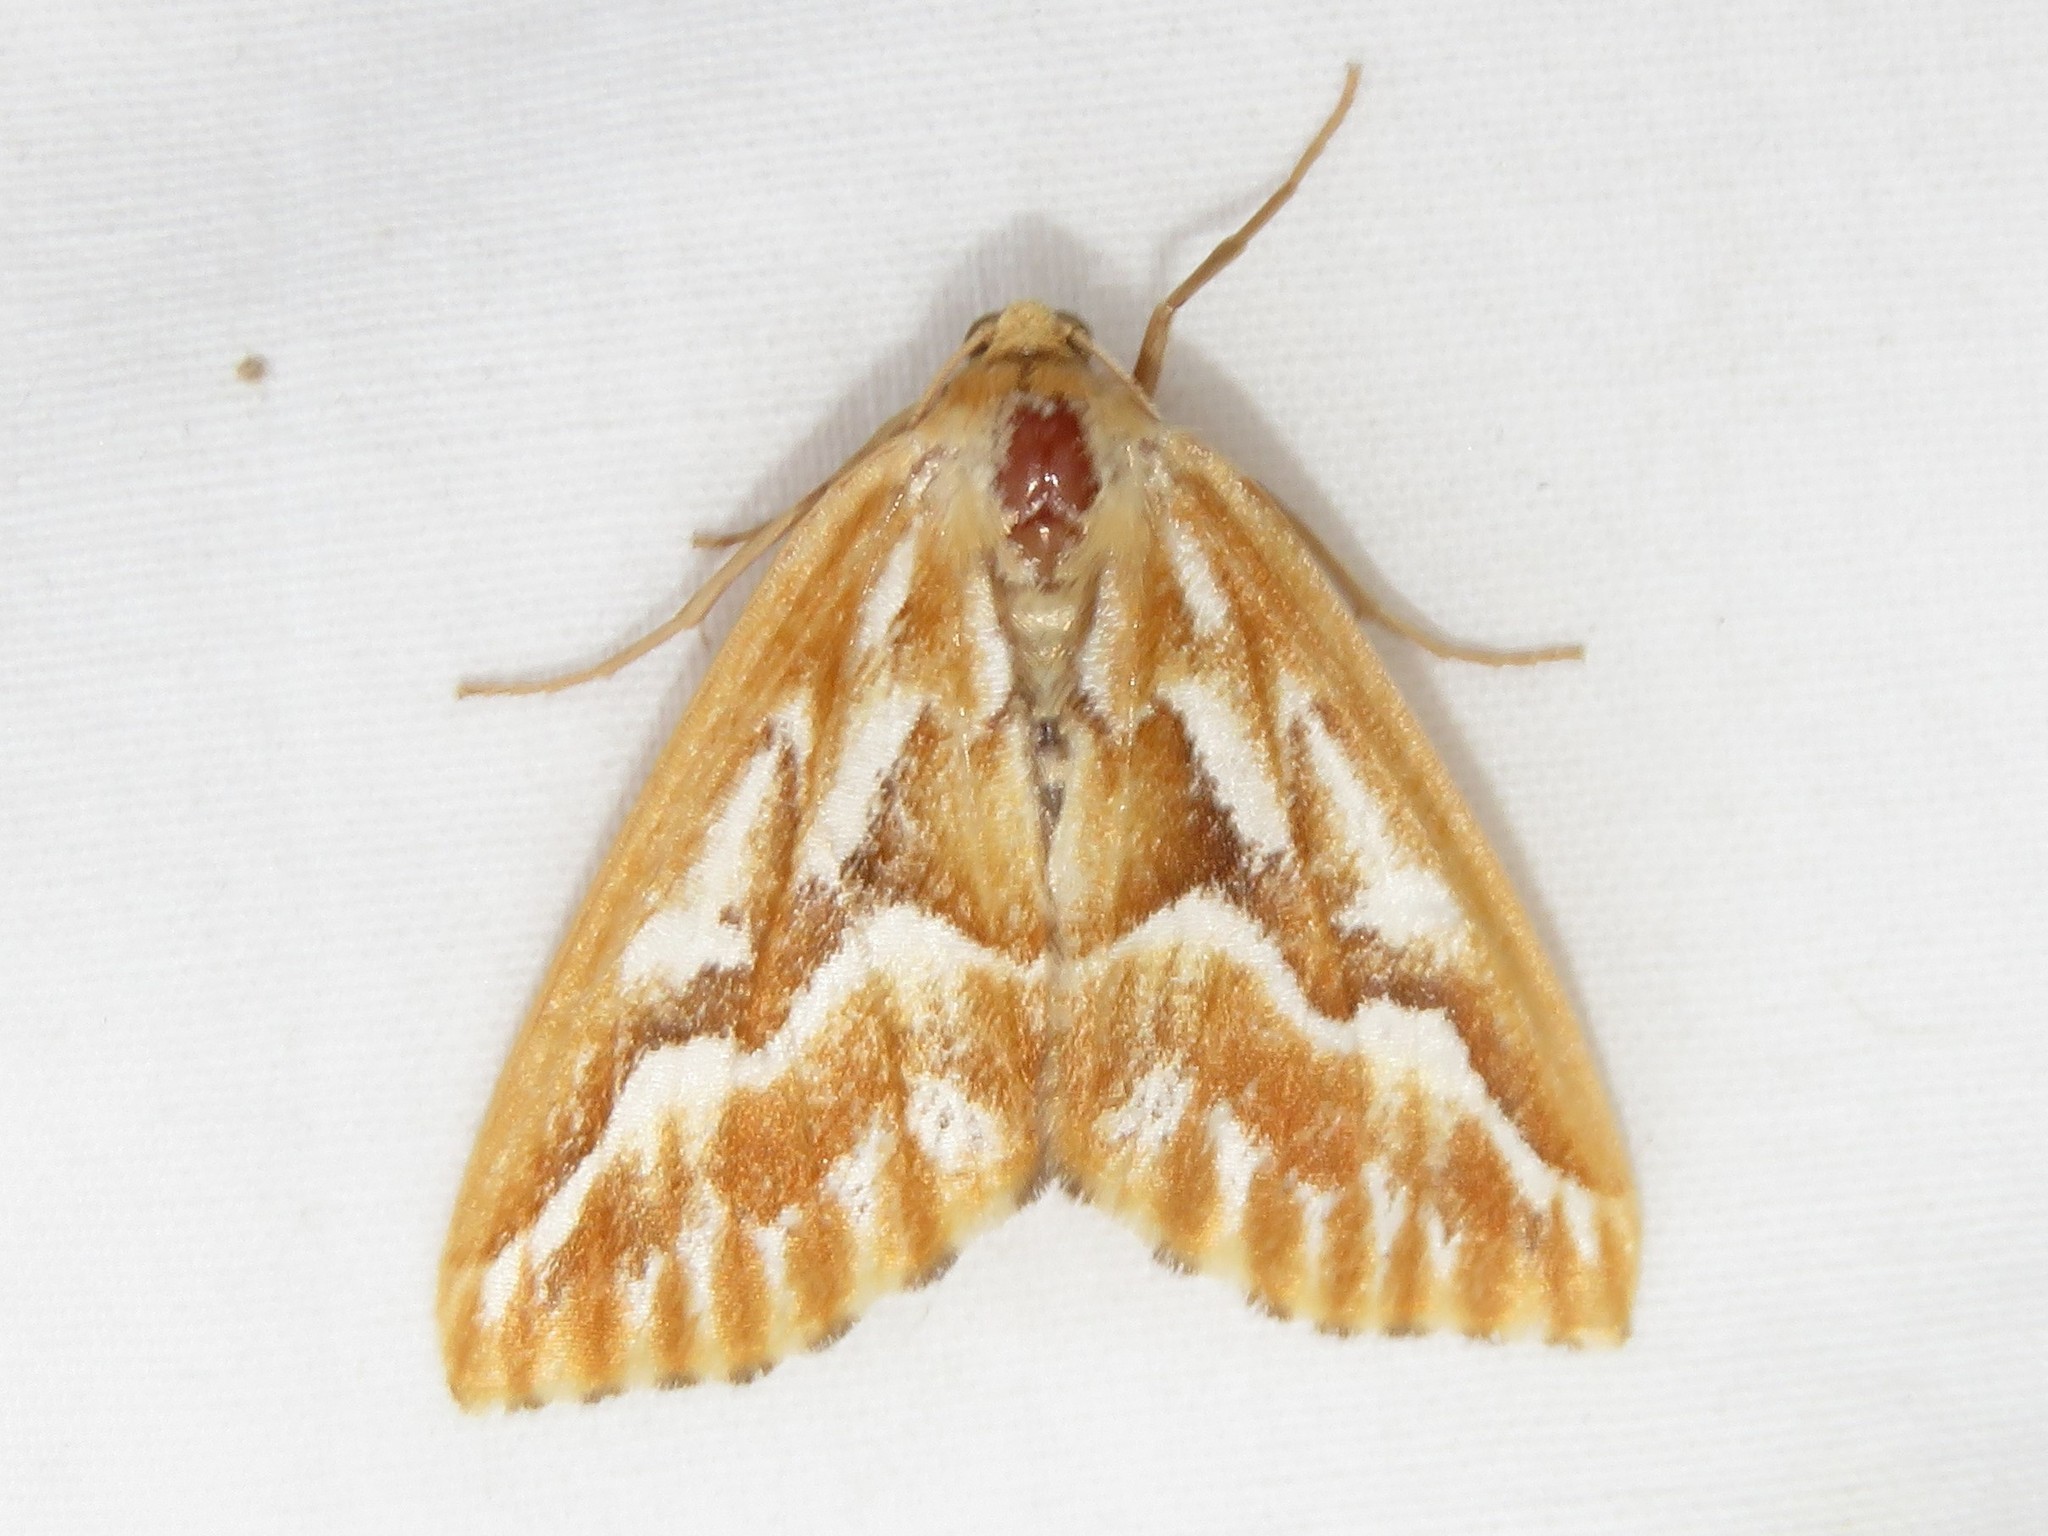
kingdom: Animalia
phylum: Arthropoda
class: Insecta
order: Lepidoptera
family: Geometridae
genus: Caripeta
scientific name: Caripeta piniata
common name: Northern pine looper moth
